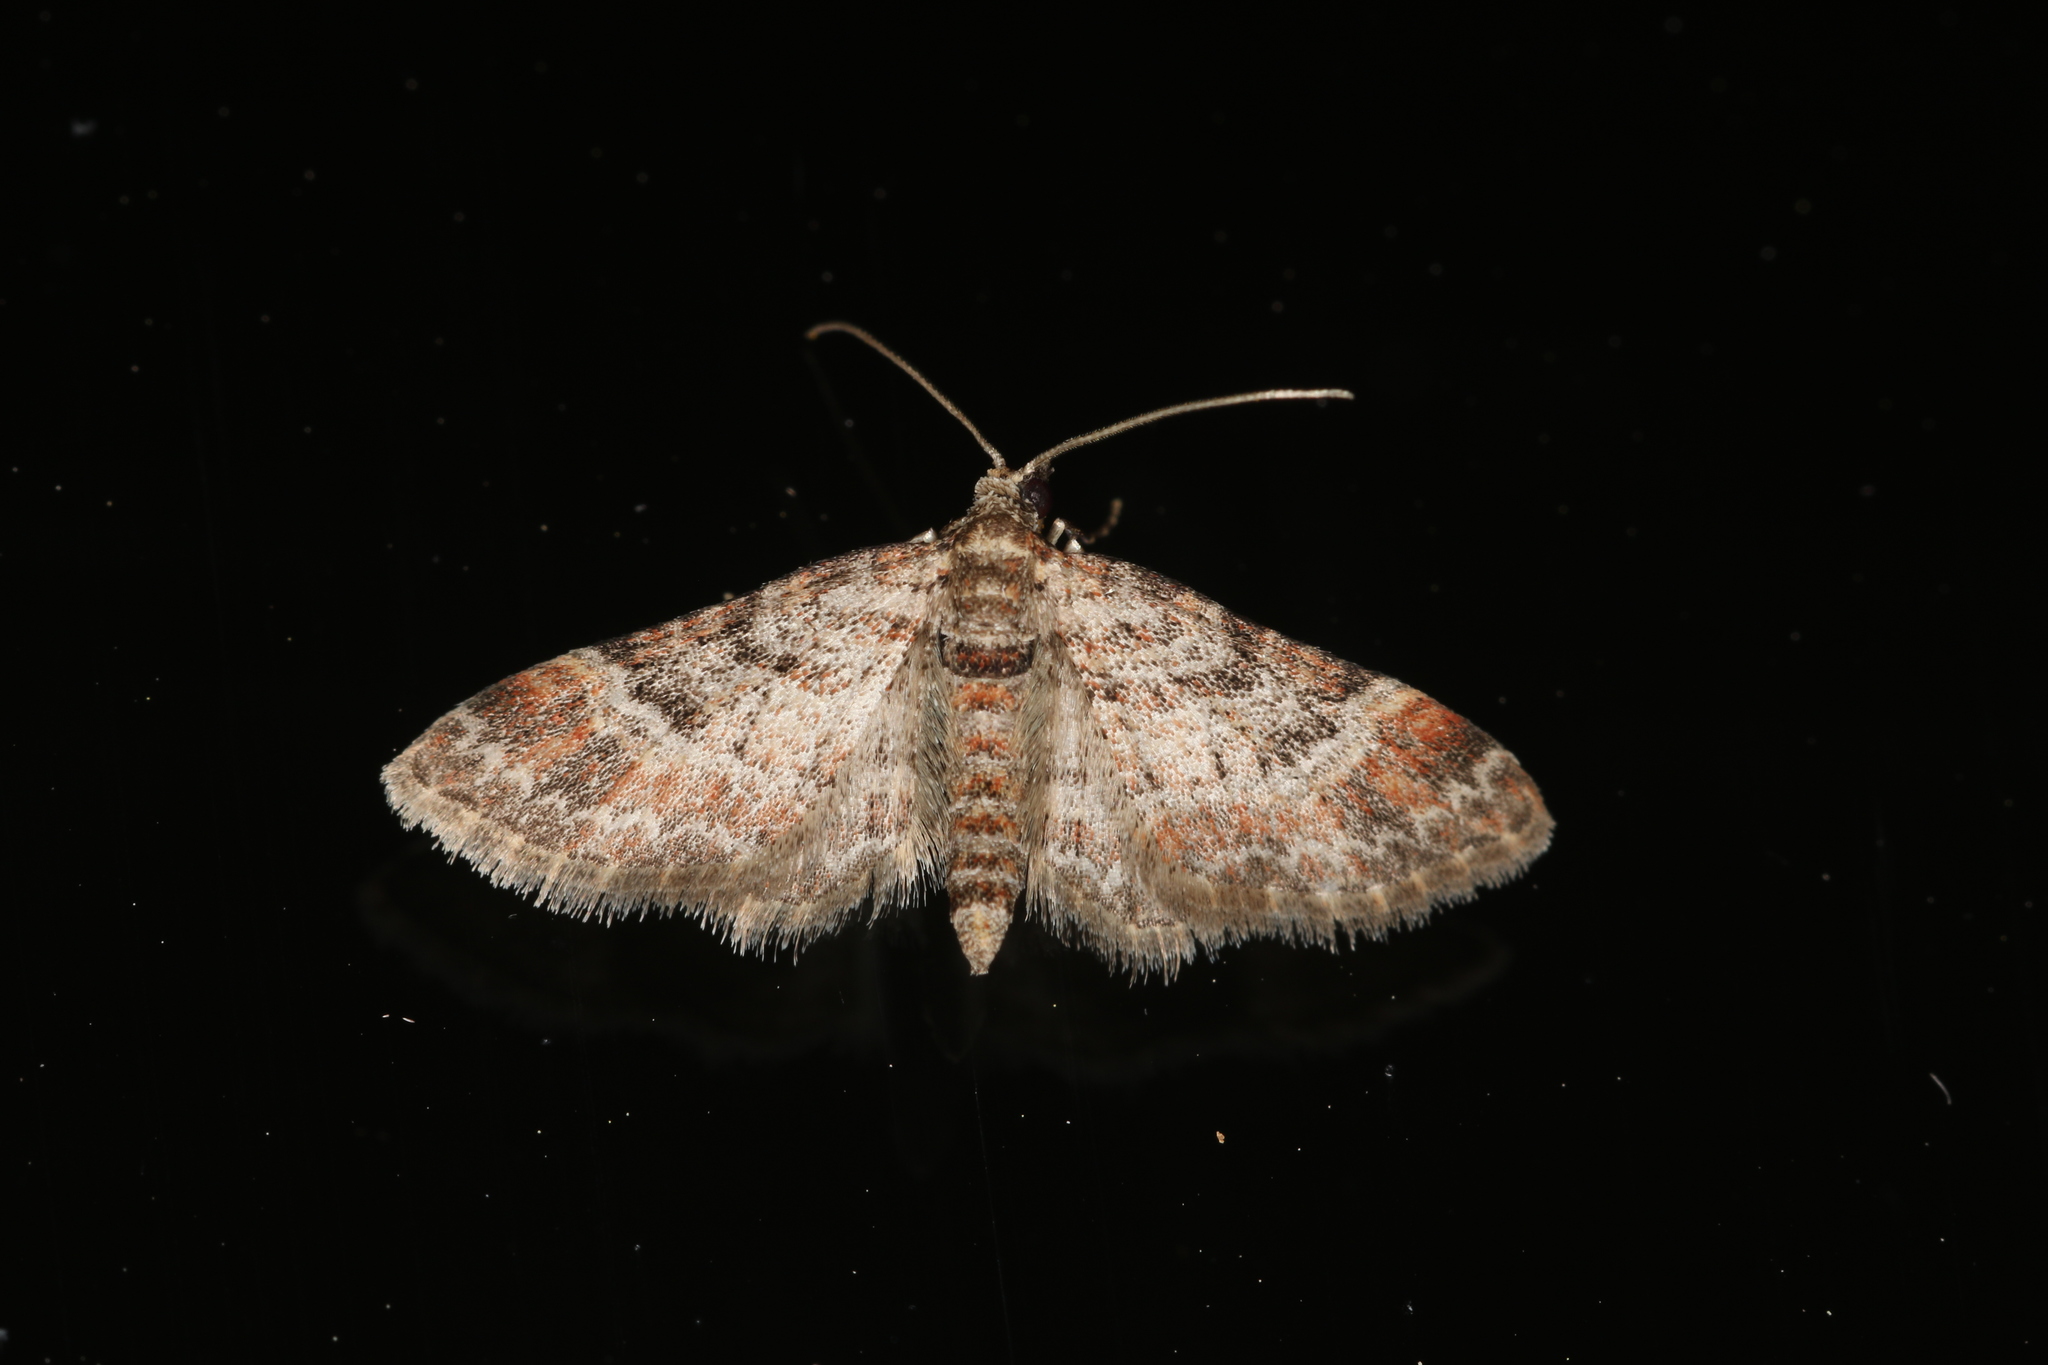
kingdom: Animalia
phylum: Arthropoda
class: Insecta
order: Lepidoptera
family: Geometridae
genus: Gymnoscelis
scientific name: Gymnoscelis rufifasciata
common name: Double-striped pug
